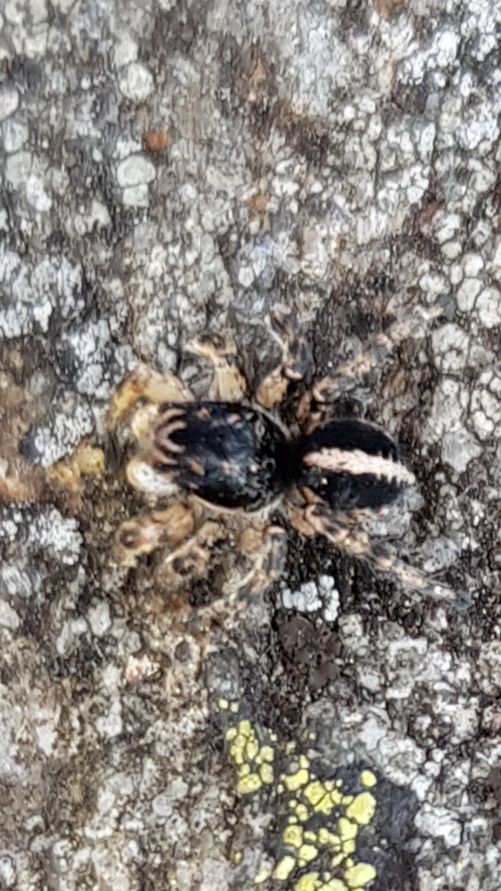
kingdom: Animalia
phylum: Arthropoda
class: Arachnida
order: Araneae
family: Salticidae
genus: Aelurillus
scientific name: Aelurillus v-insignitus
